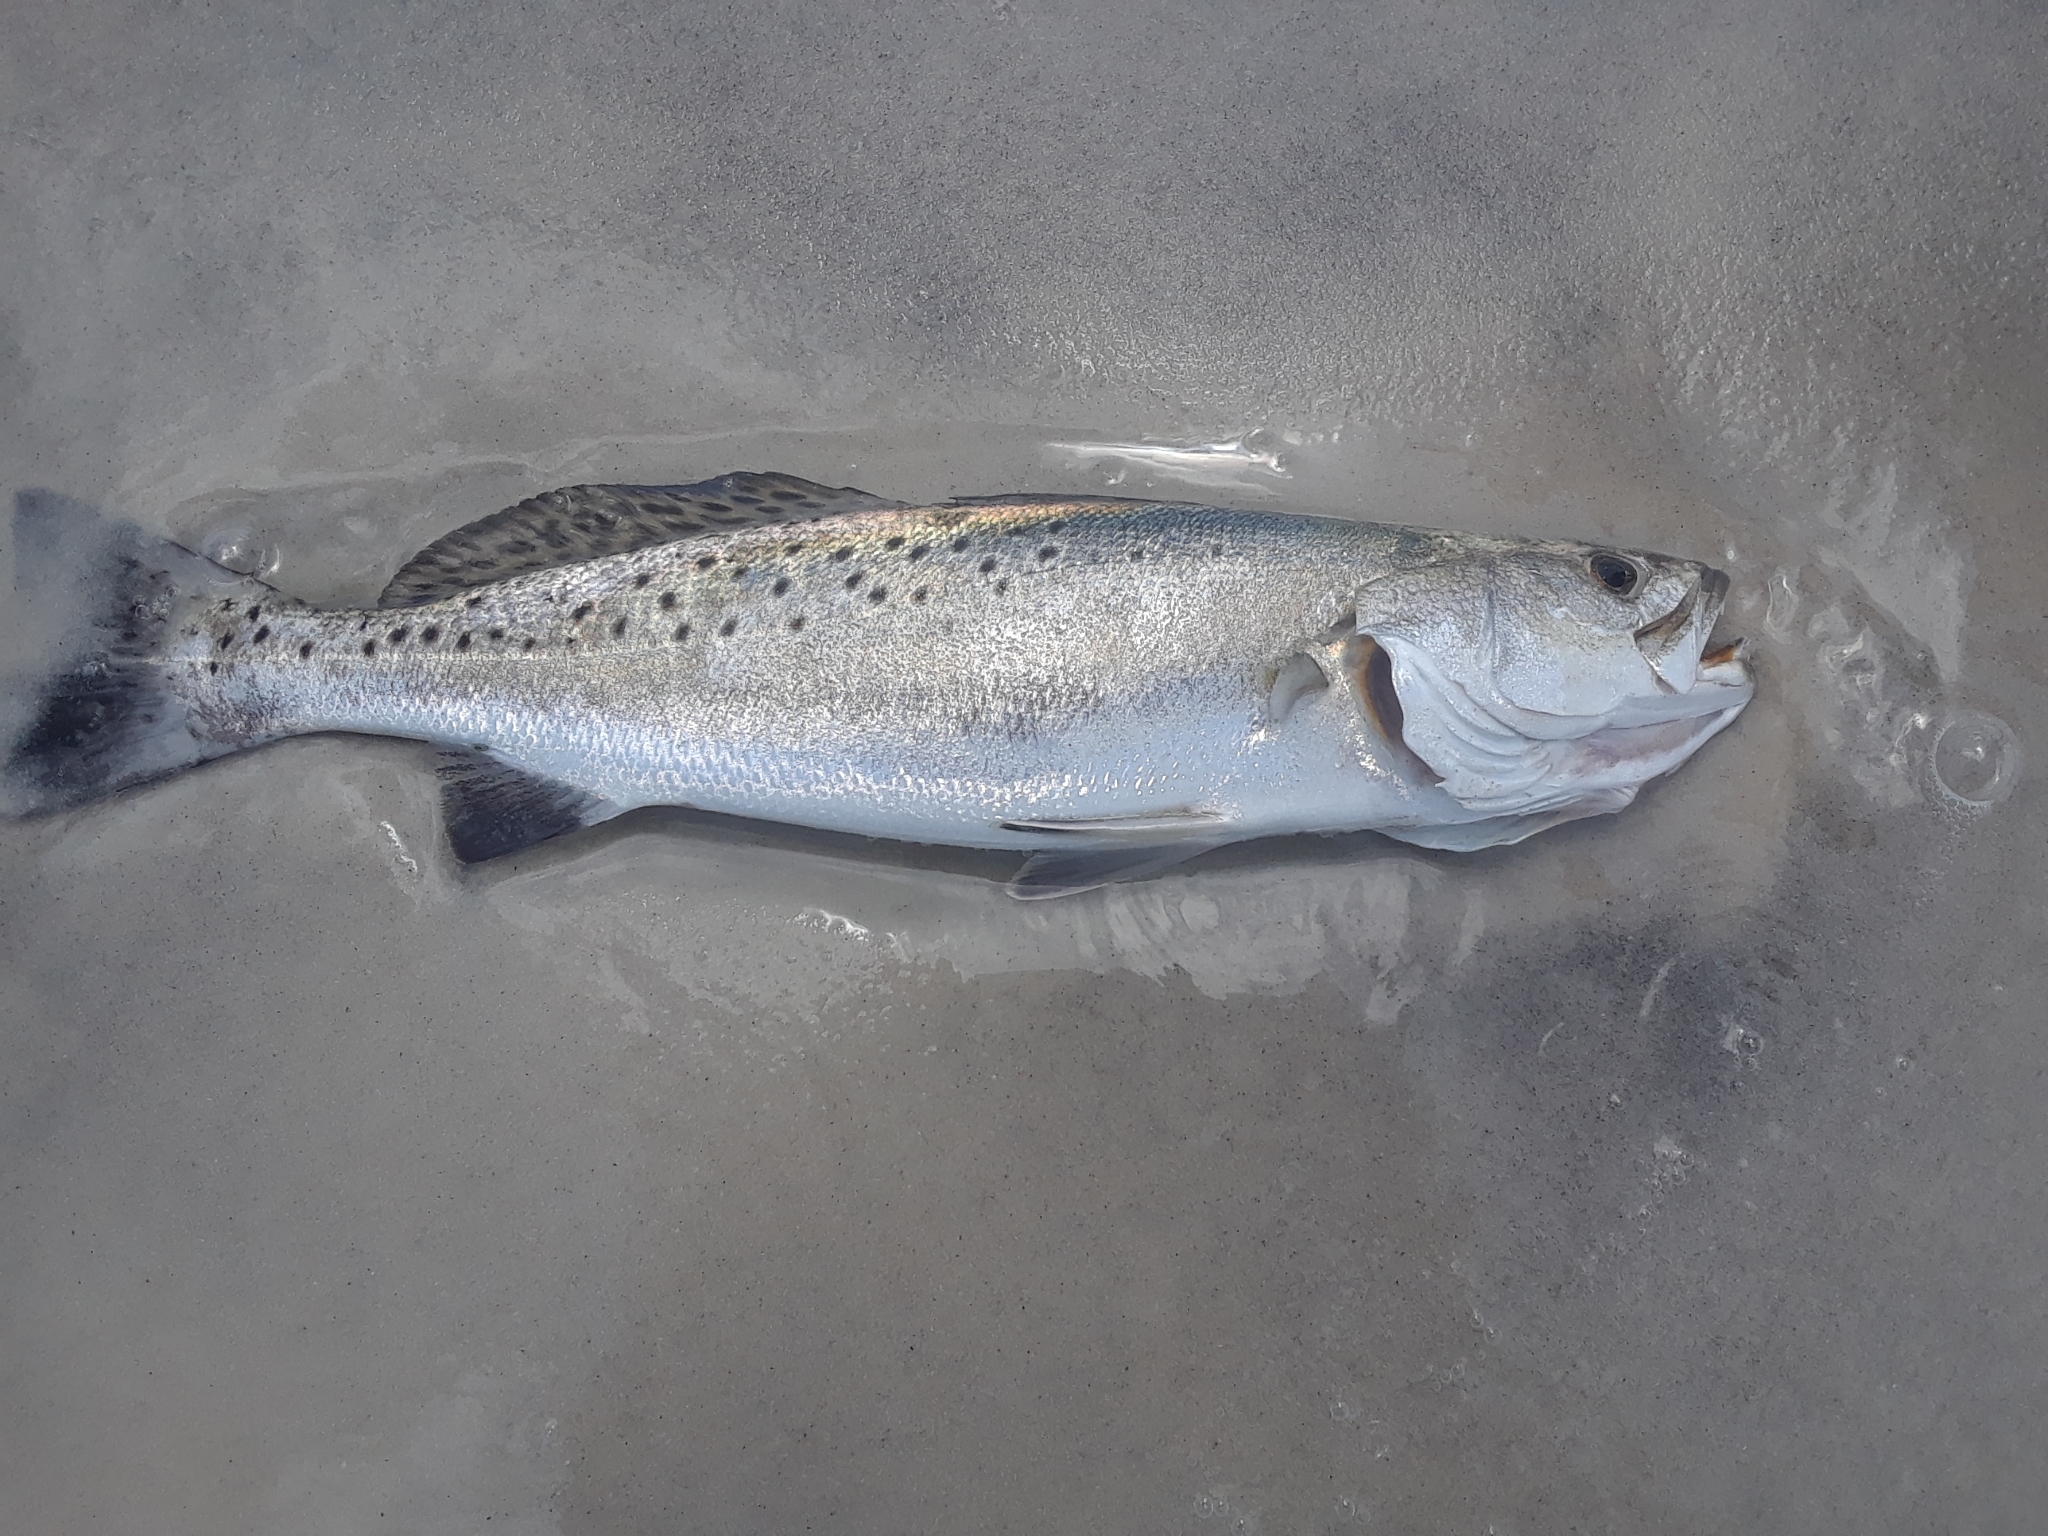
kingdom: Animalia
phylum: Chordata
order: Perciformes
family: Sciaenidae
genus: Cynoscion
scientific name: Cynoscion nebulosus
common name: Spotted seatrout
